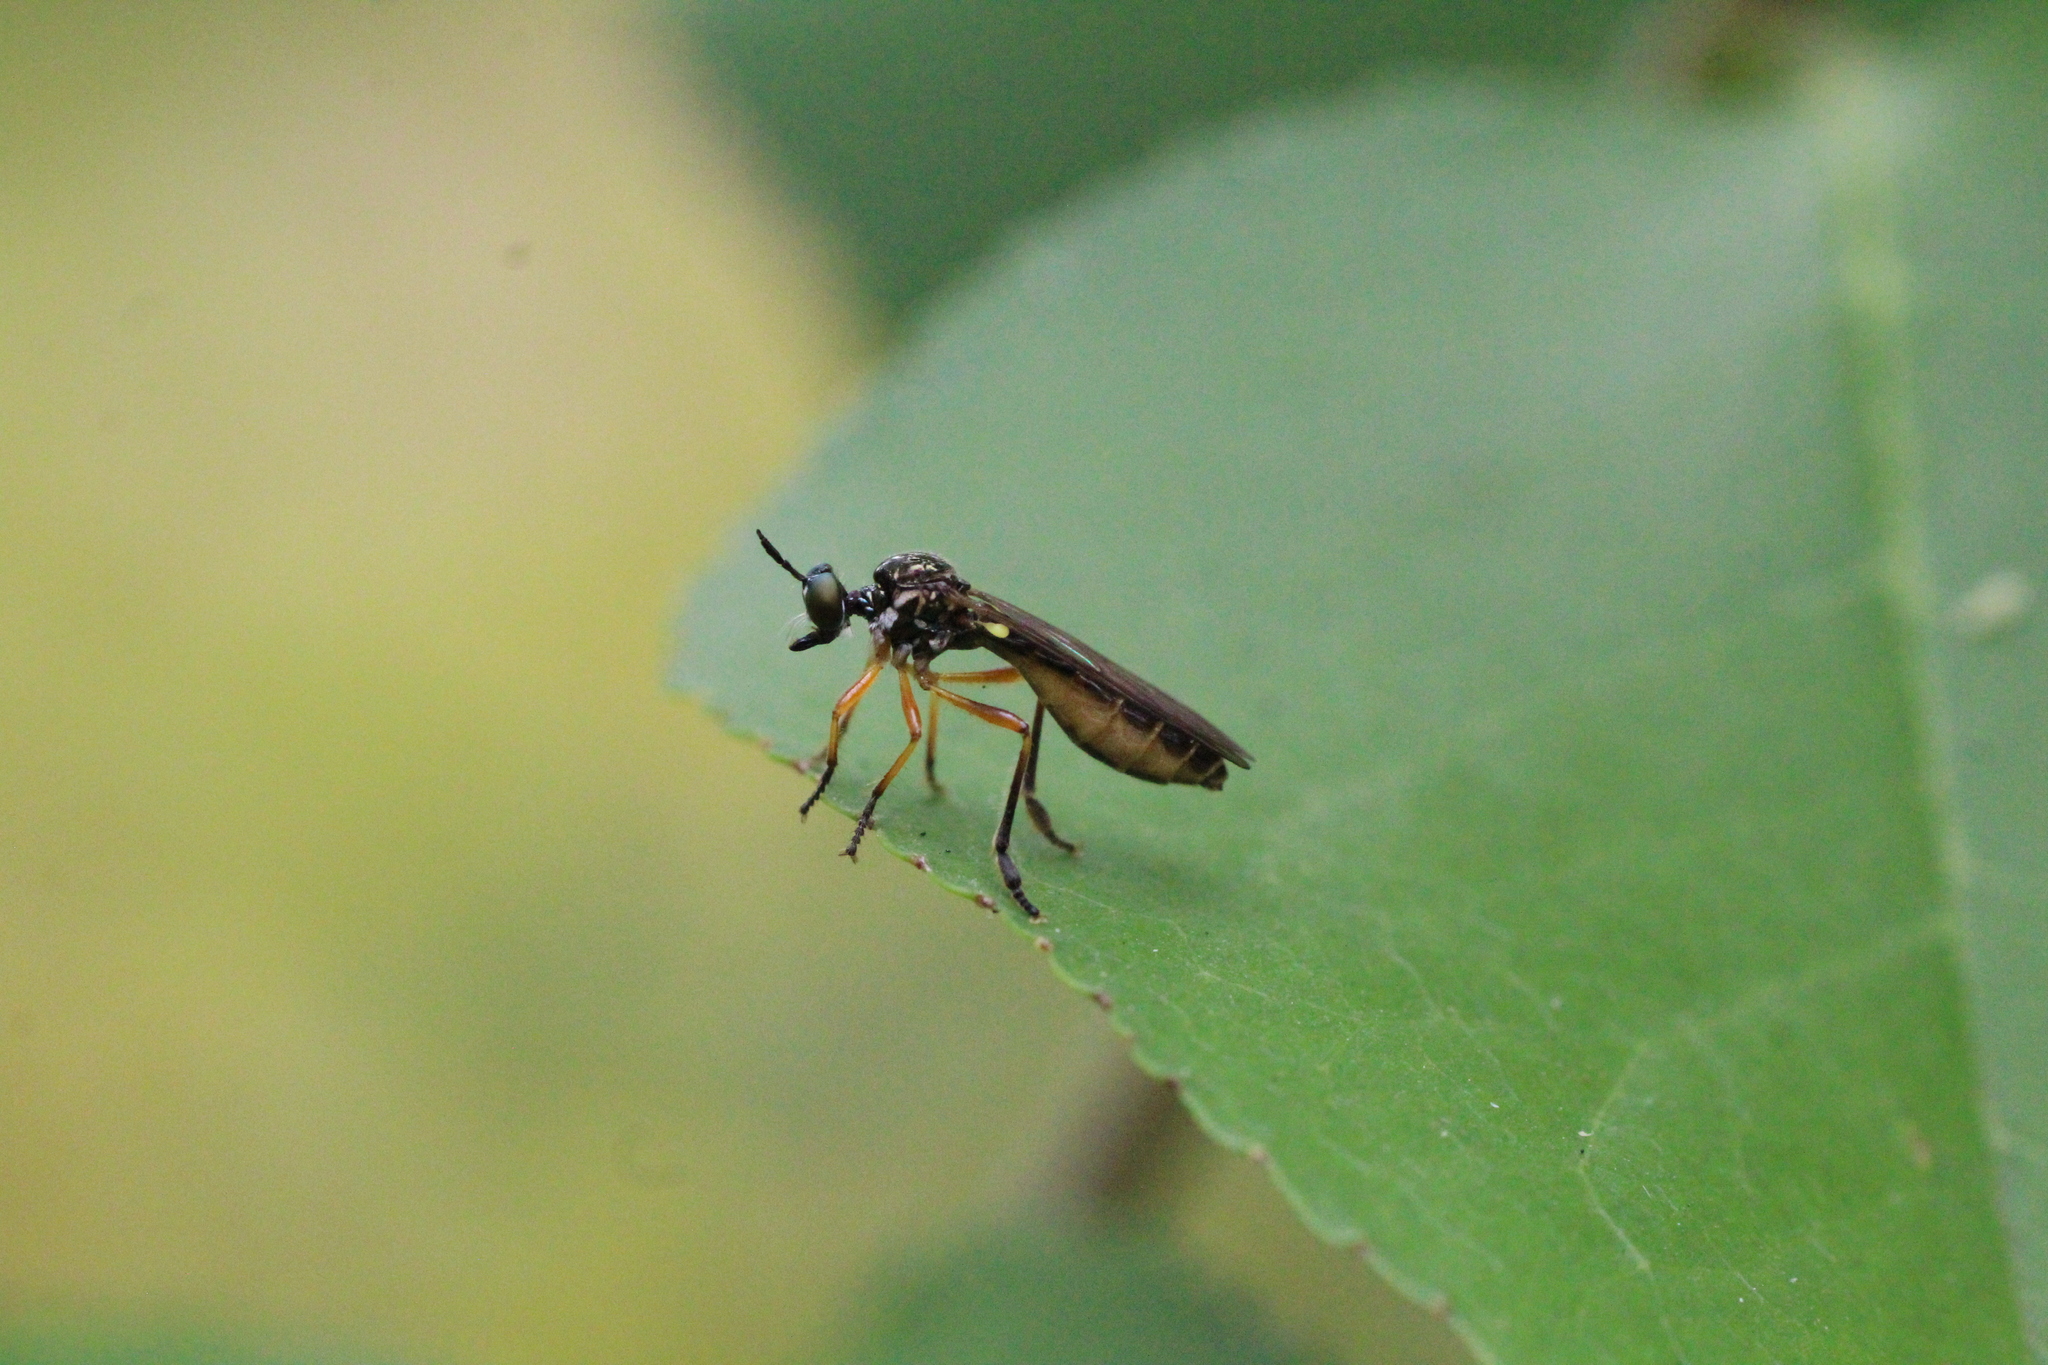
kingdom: Animalia
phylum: Arthropoda
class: Insecta
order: Diptera
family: Asilidae
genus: Dioctria
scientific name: Dioctria bicincta
